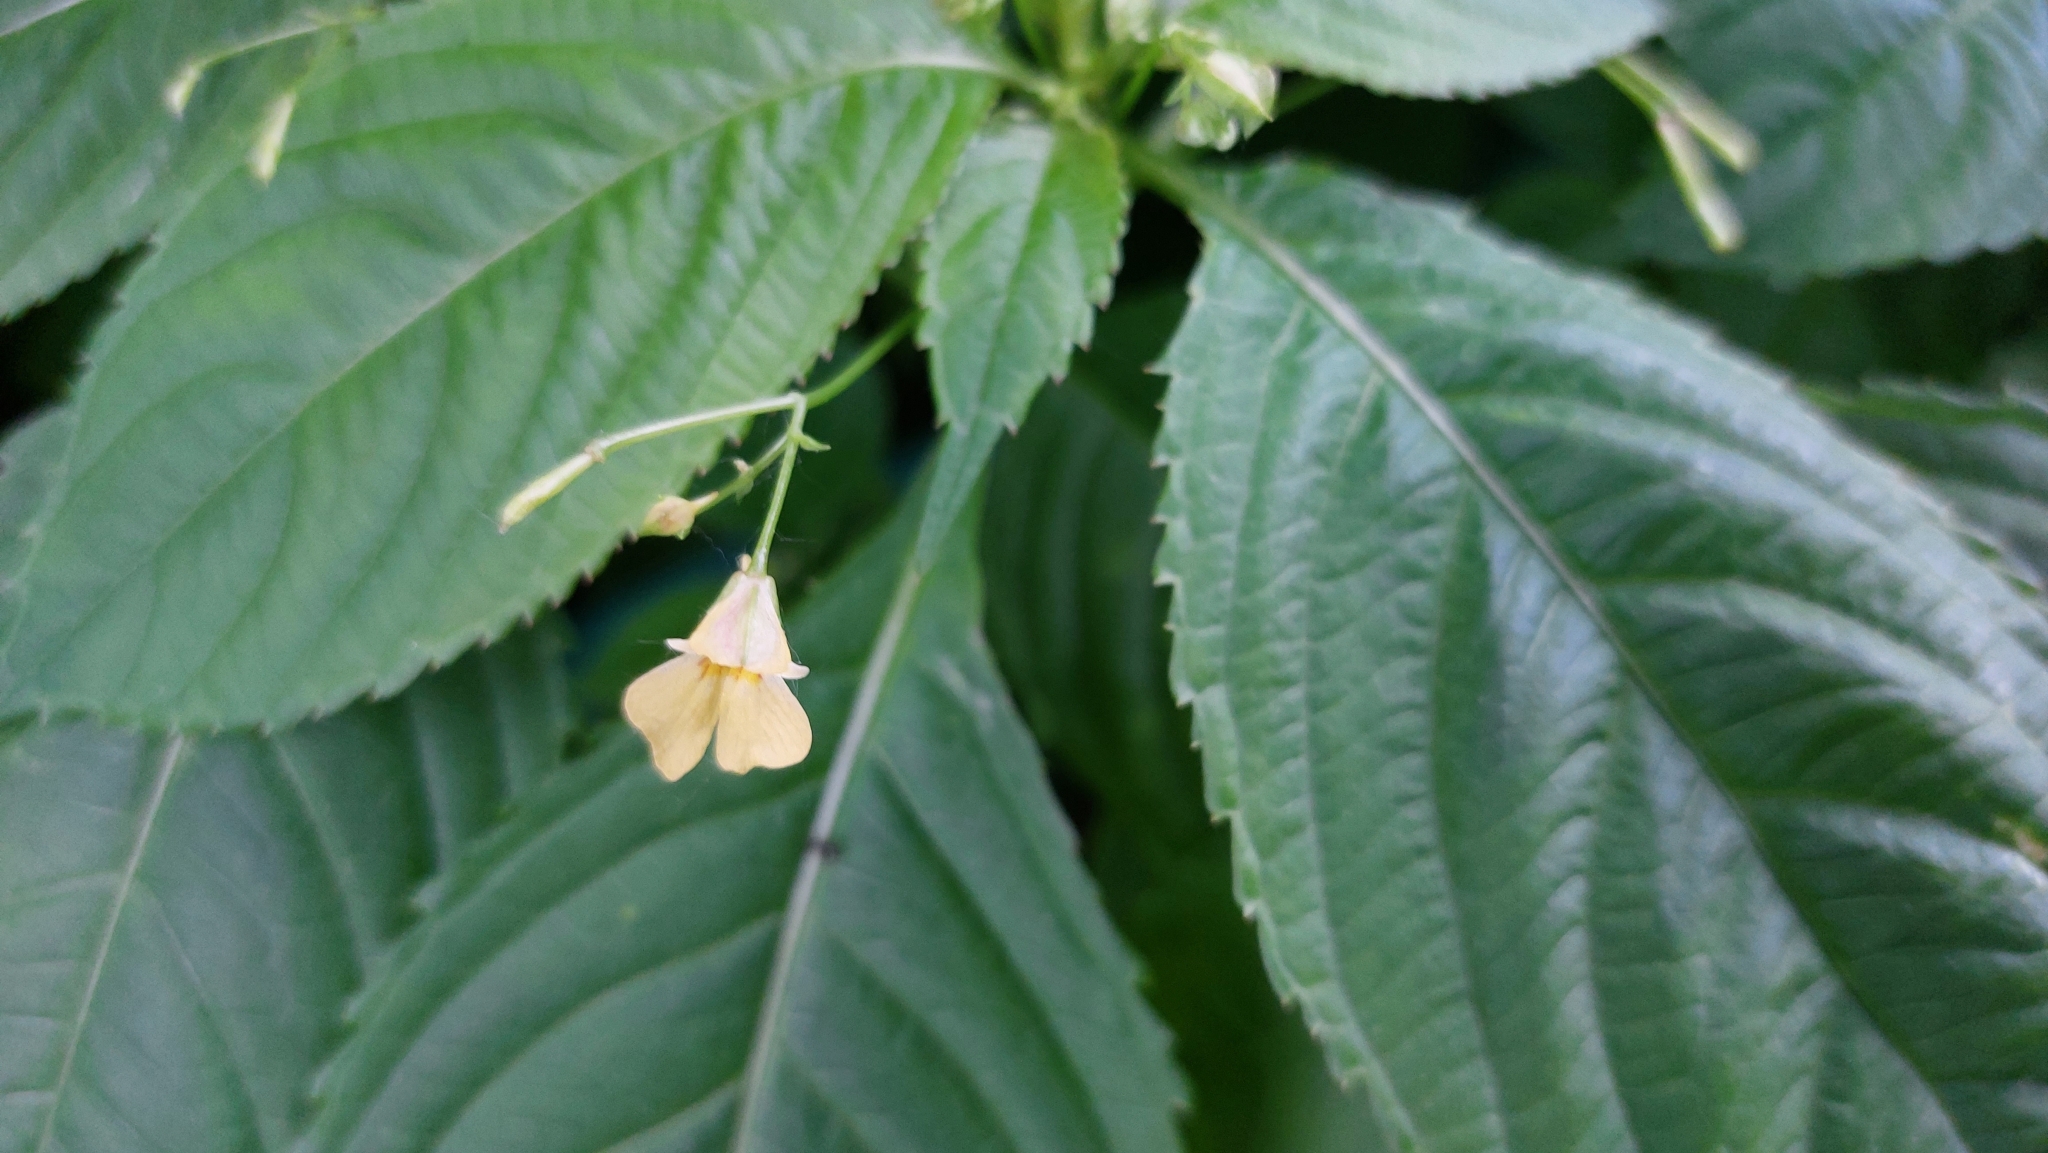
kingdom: Plantae
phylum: Tracheophyta
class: Magnoliopsida
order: Ericales
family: Balsaminaceae
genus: Impatiens
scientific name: Impatiens parviflora
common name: Small balsam
